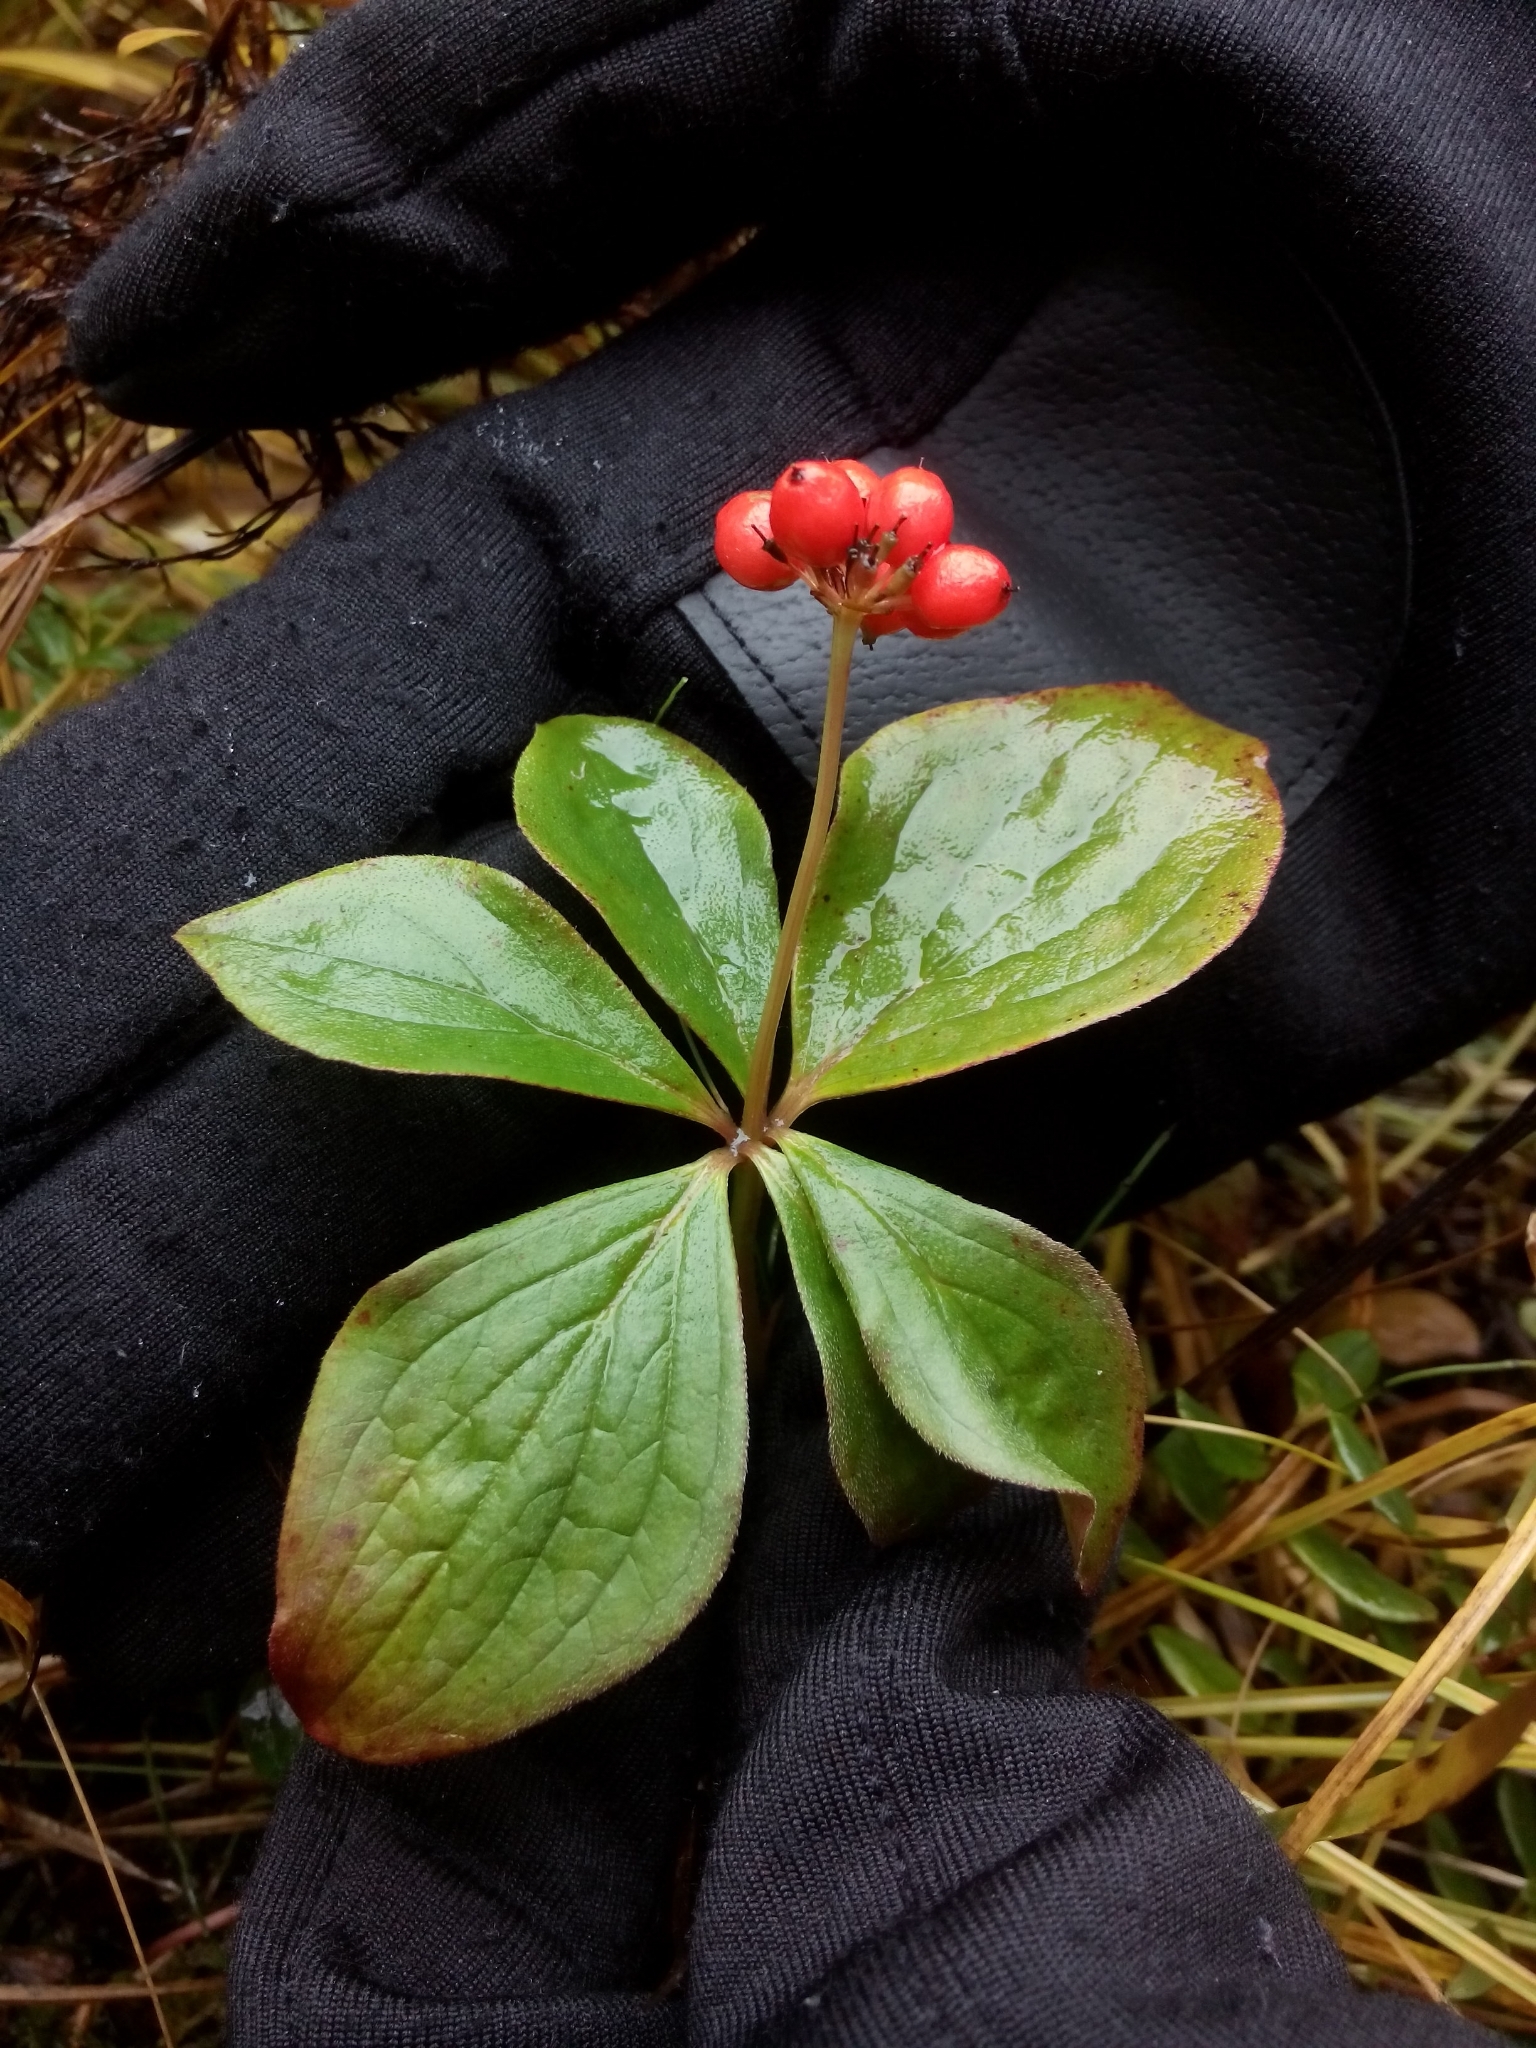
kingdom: Plantae
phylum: Tracheophyta
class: Magnoliopsida
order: Cornales
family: Cornaceae
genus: Cornus
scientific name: Cornus canadensis
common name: Creeping dogwood
